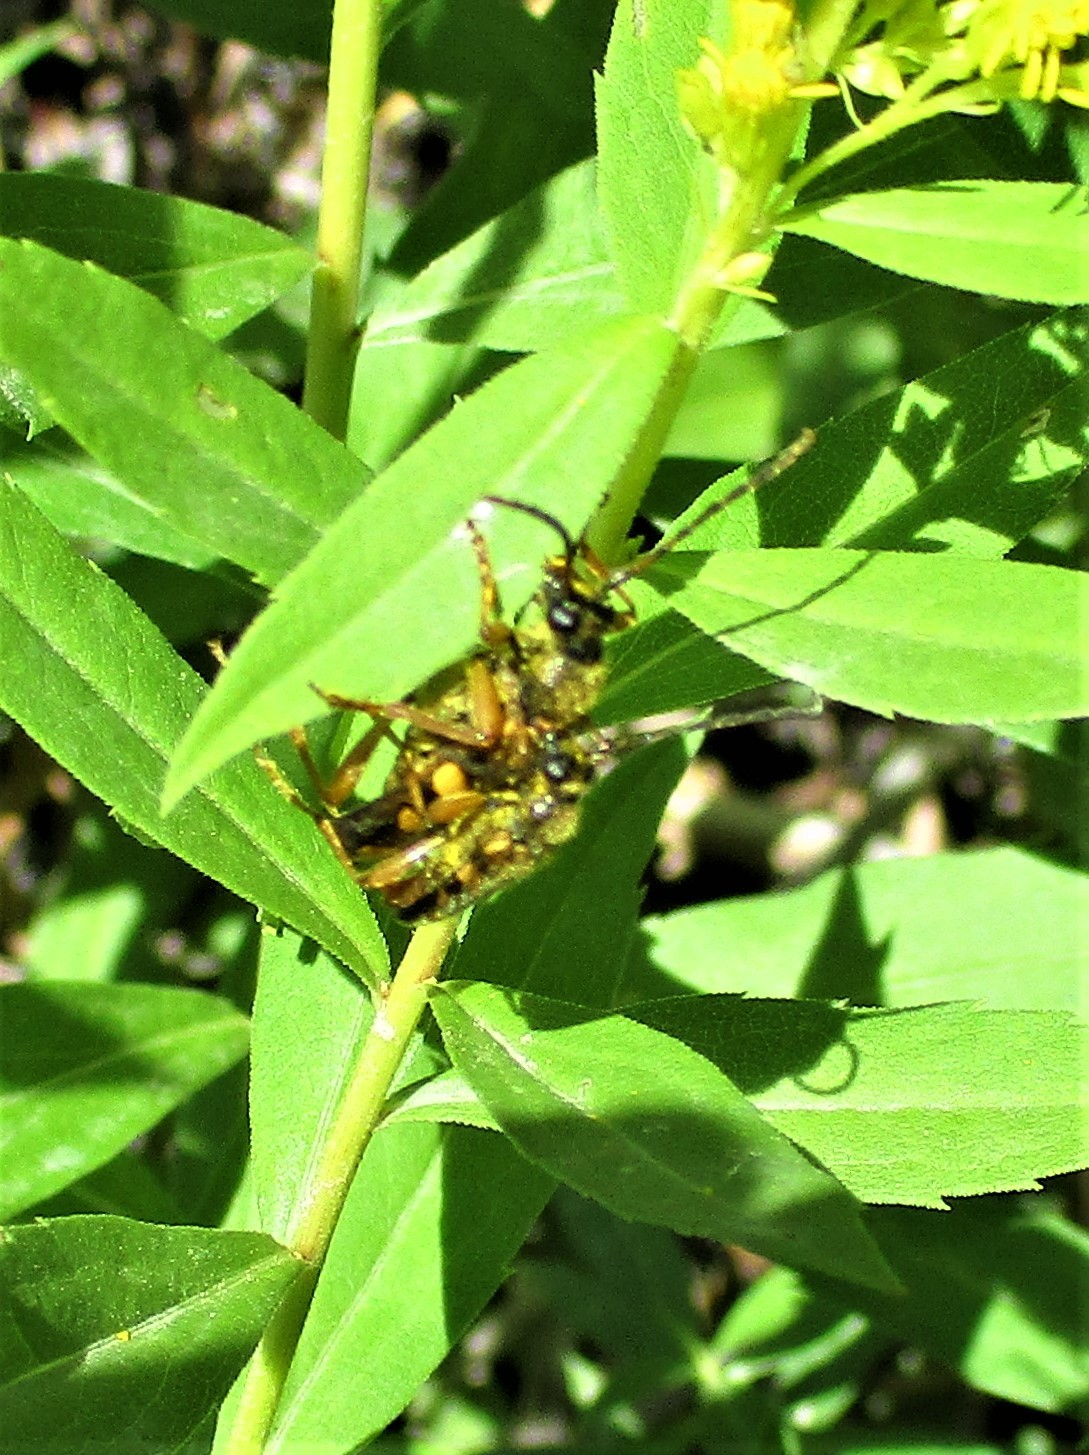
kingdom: Animalia
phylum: Arthropoda
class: Insecta
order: Coleoptera
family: Cerambycidae
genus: Xestoleptura
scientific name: Xestoleptura crassipes
